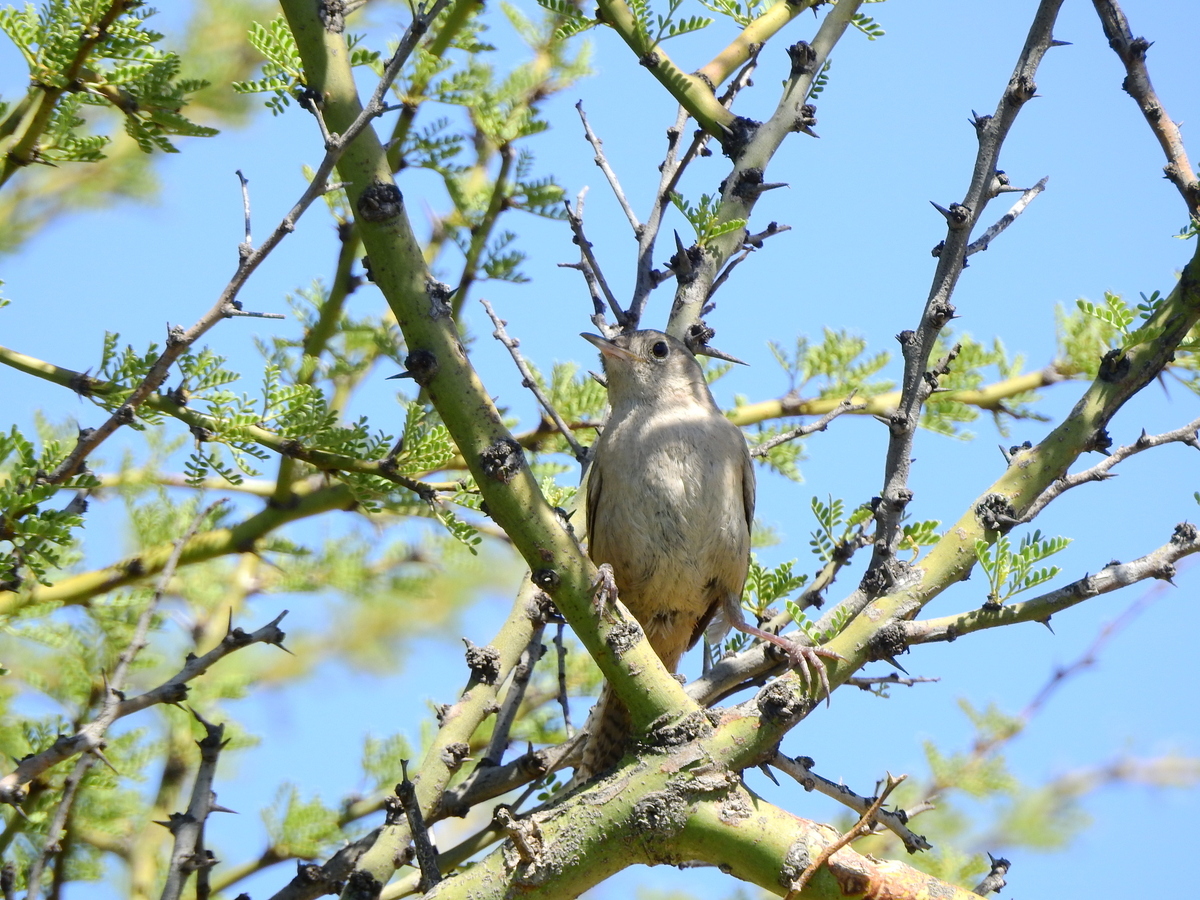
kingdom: Animalia
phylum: Chordata
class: Aves
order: Passeriformes
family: Troglodytidae
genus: Troglodytes
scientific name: Troglodytes aedon
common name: House wren
